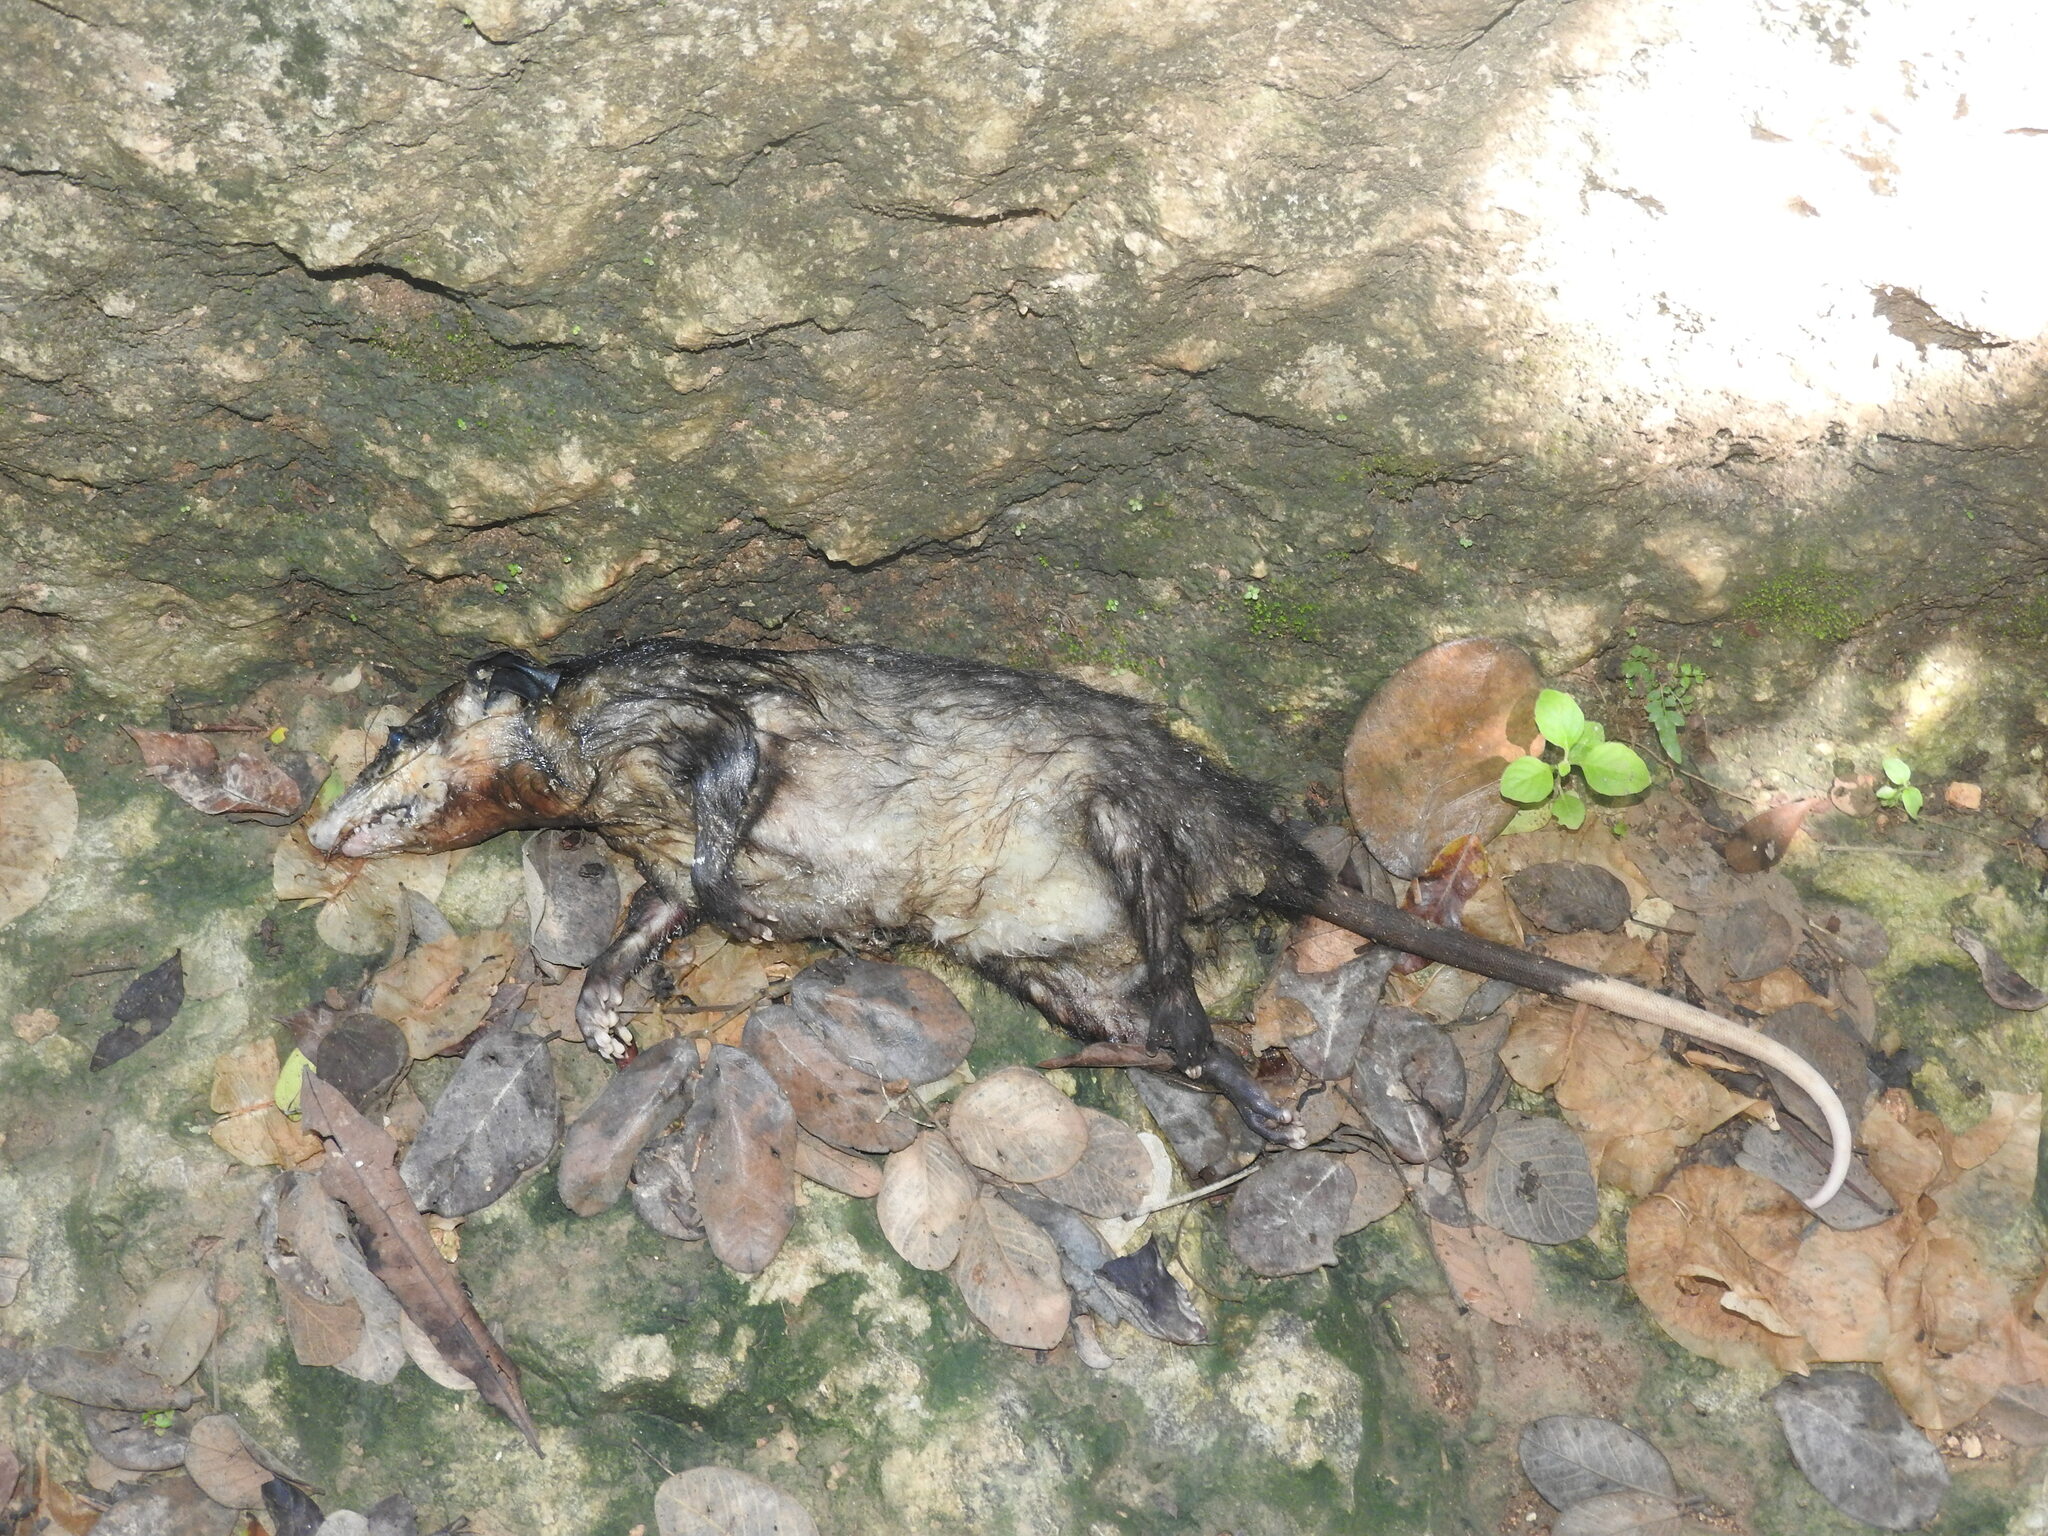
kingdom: Animalia
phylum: Chordata
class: Mammalia
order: Didelphimorphia
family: Didelphidae
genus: Didelphis
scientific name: Didelphis
